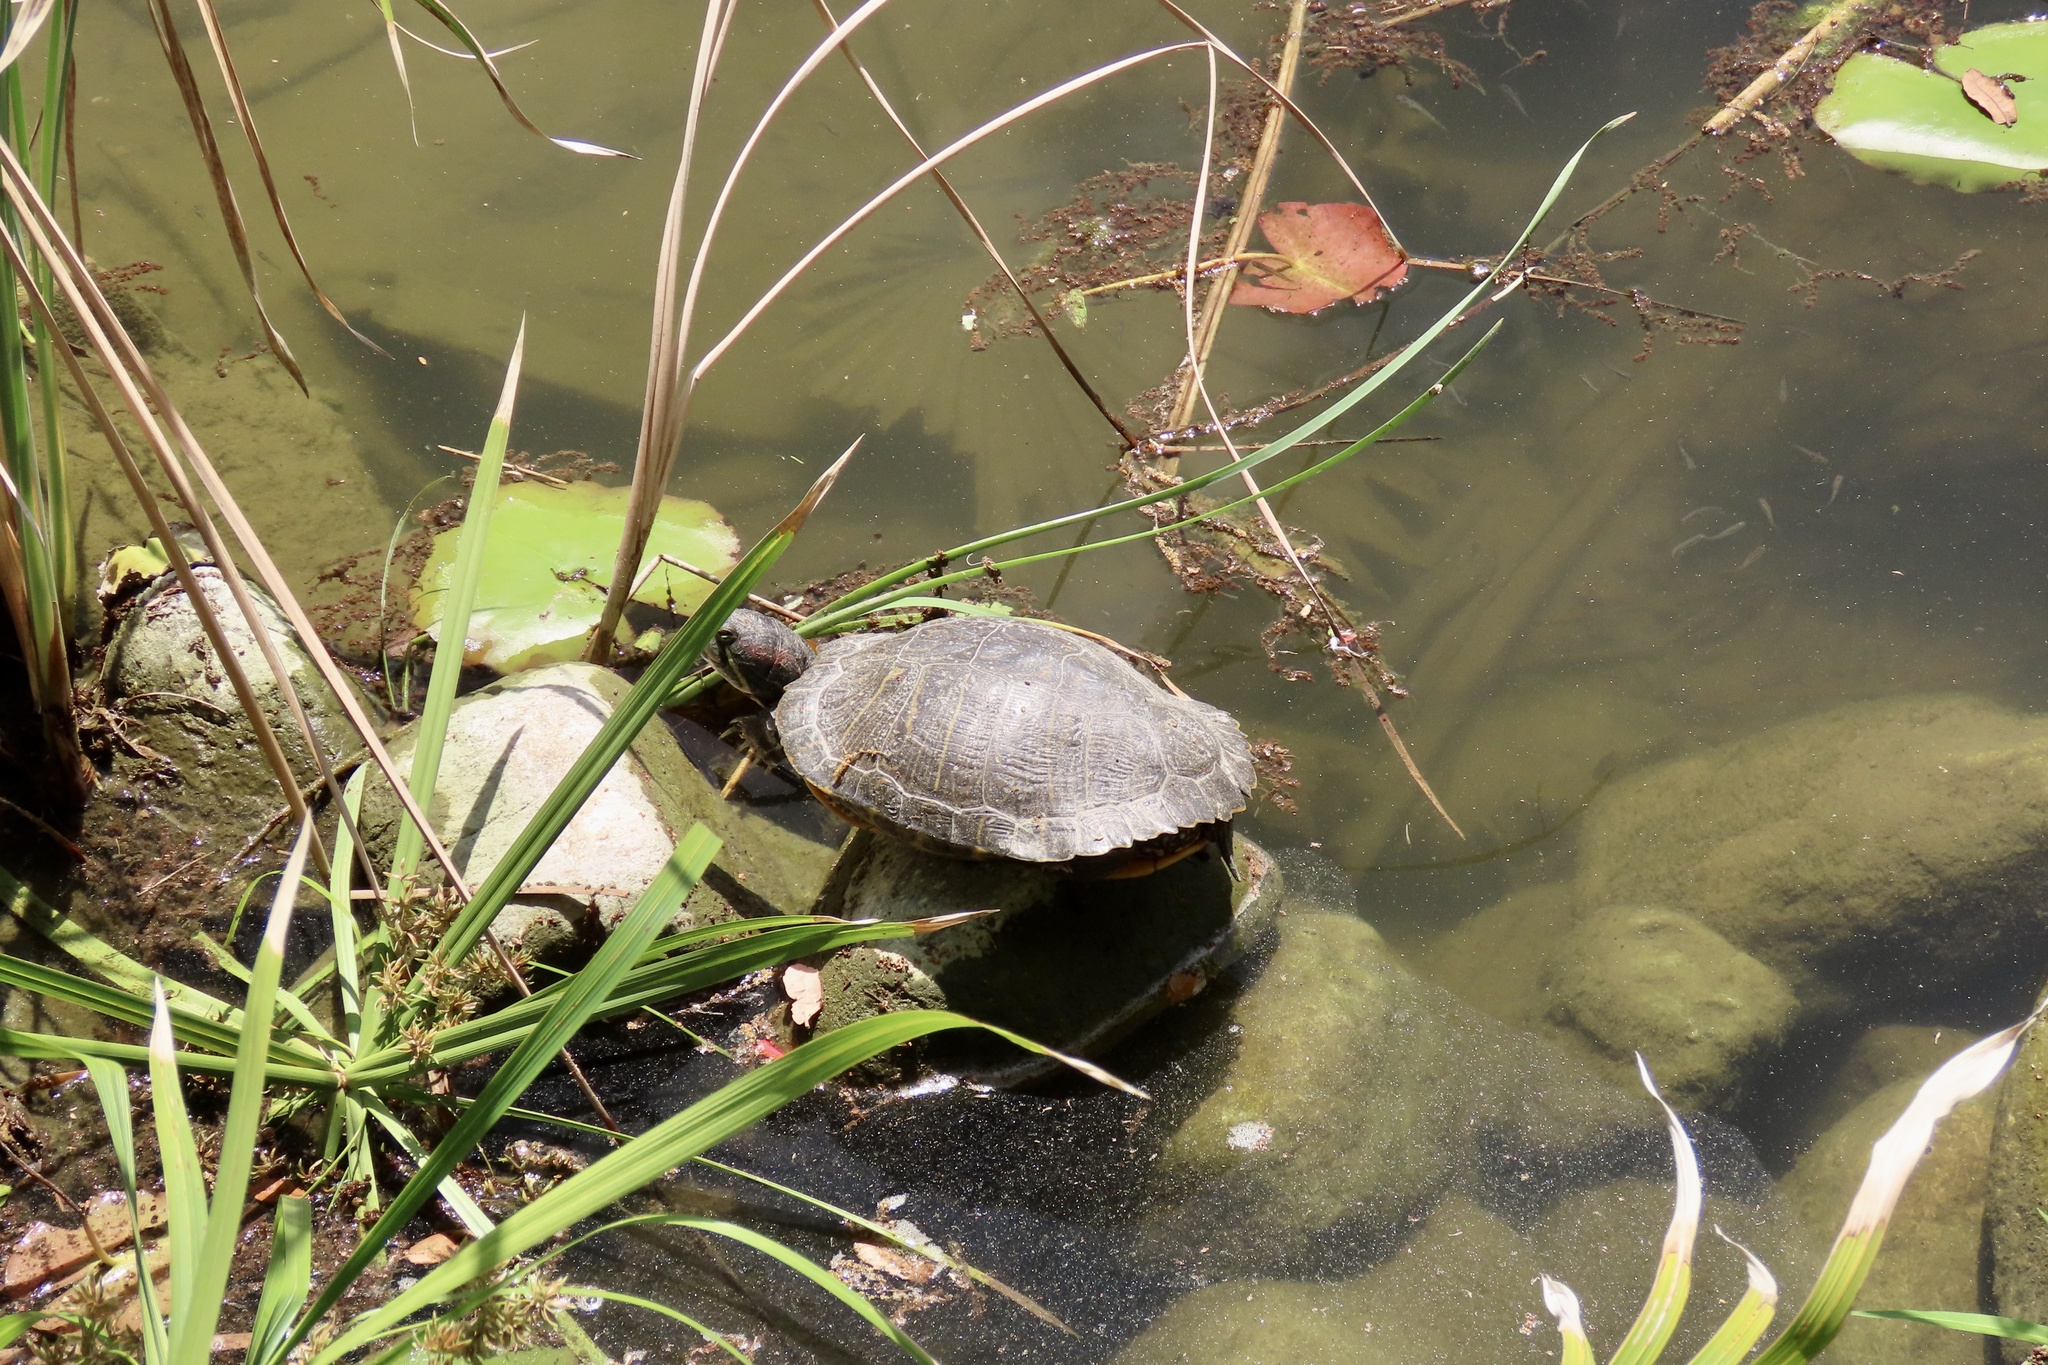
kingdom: Animalia
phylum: Chordata
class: Testudines
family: Emydidae
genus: Trachemys
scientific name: Trachemys scripta
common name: Slider
